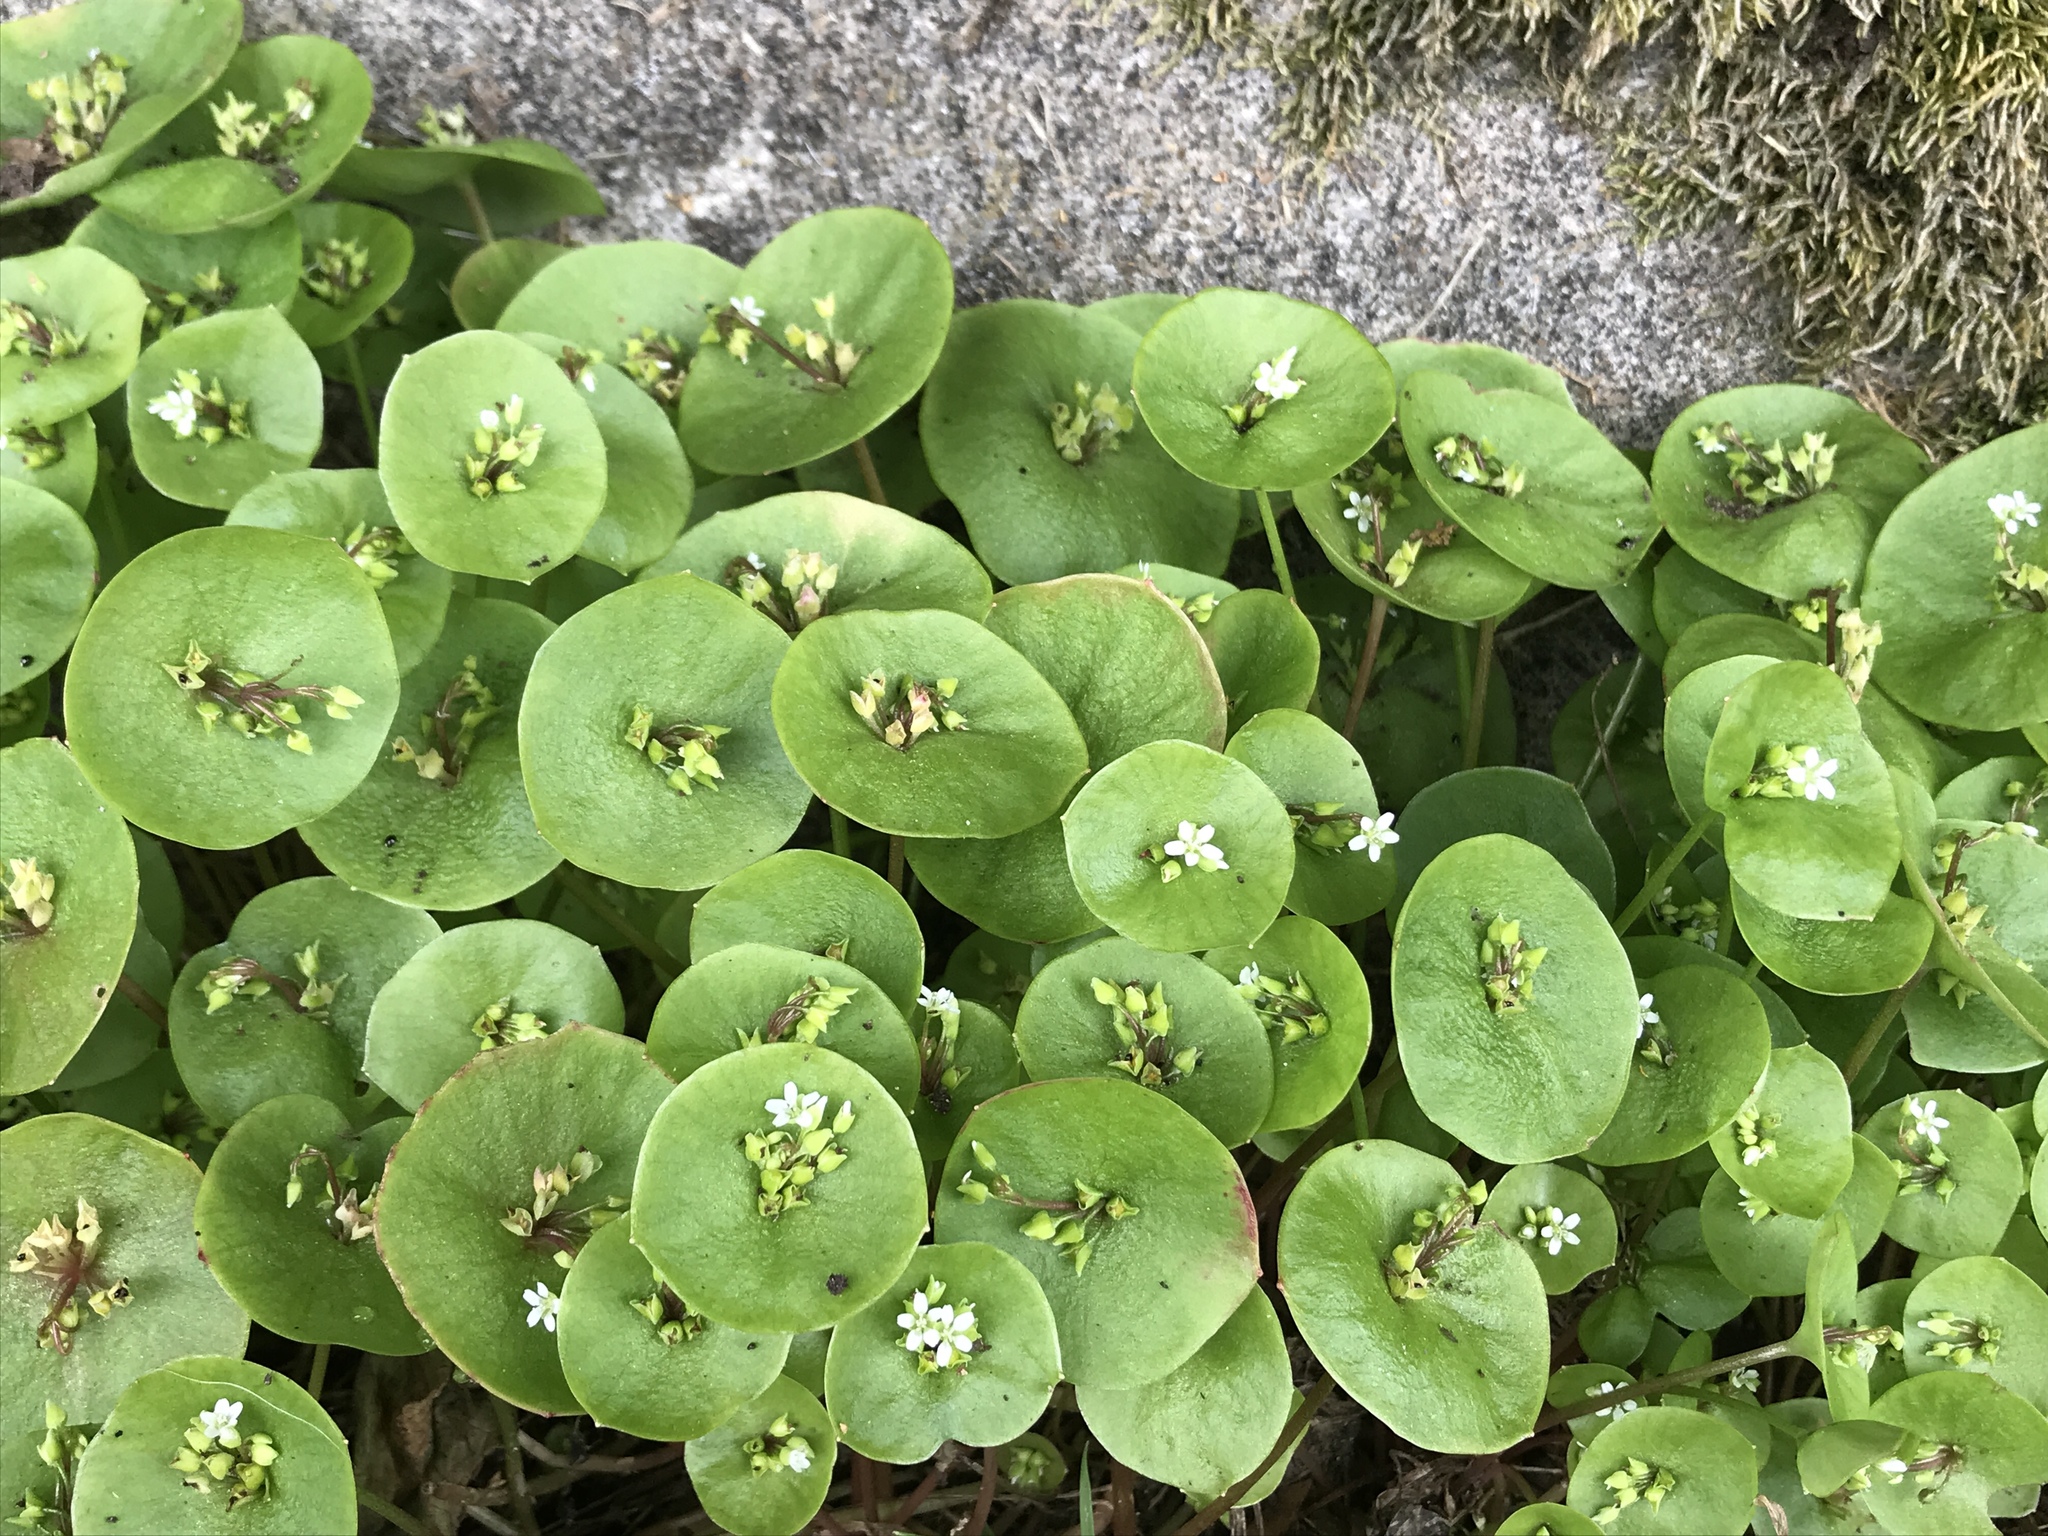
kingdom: Plantae
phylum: Tracheophyta
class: Magnoliopsida
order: Caryophyllales
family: Montiaceae
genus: Claytonia
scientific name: Claytonia perfoliata
